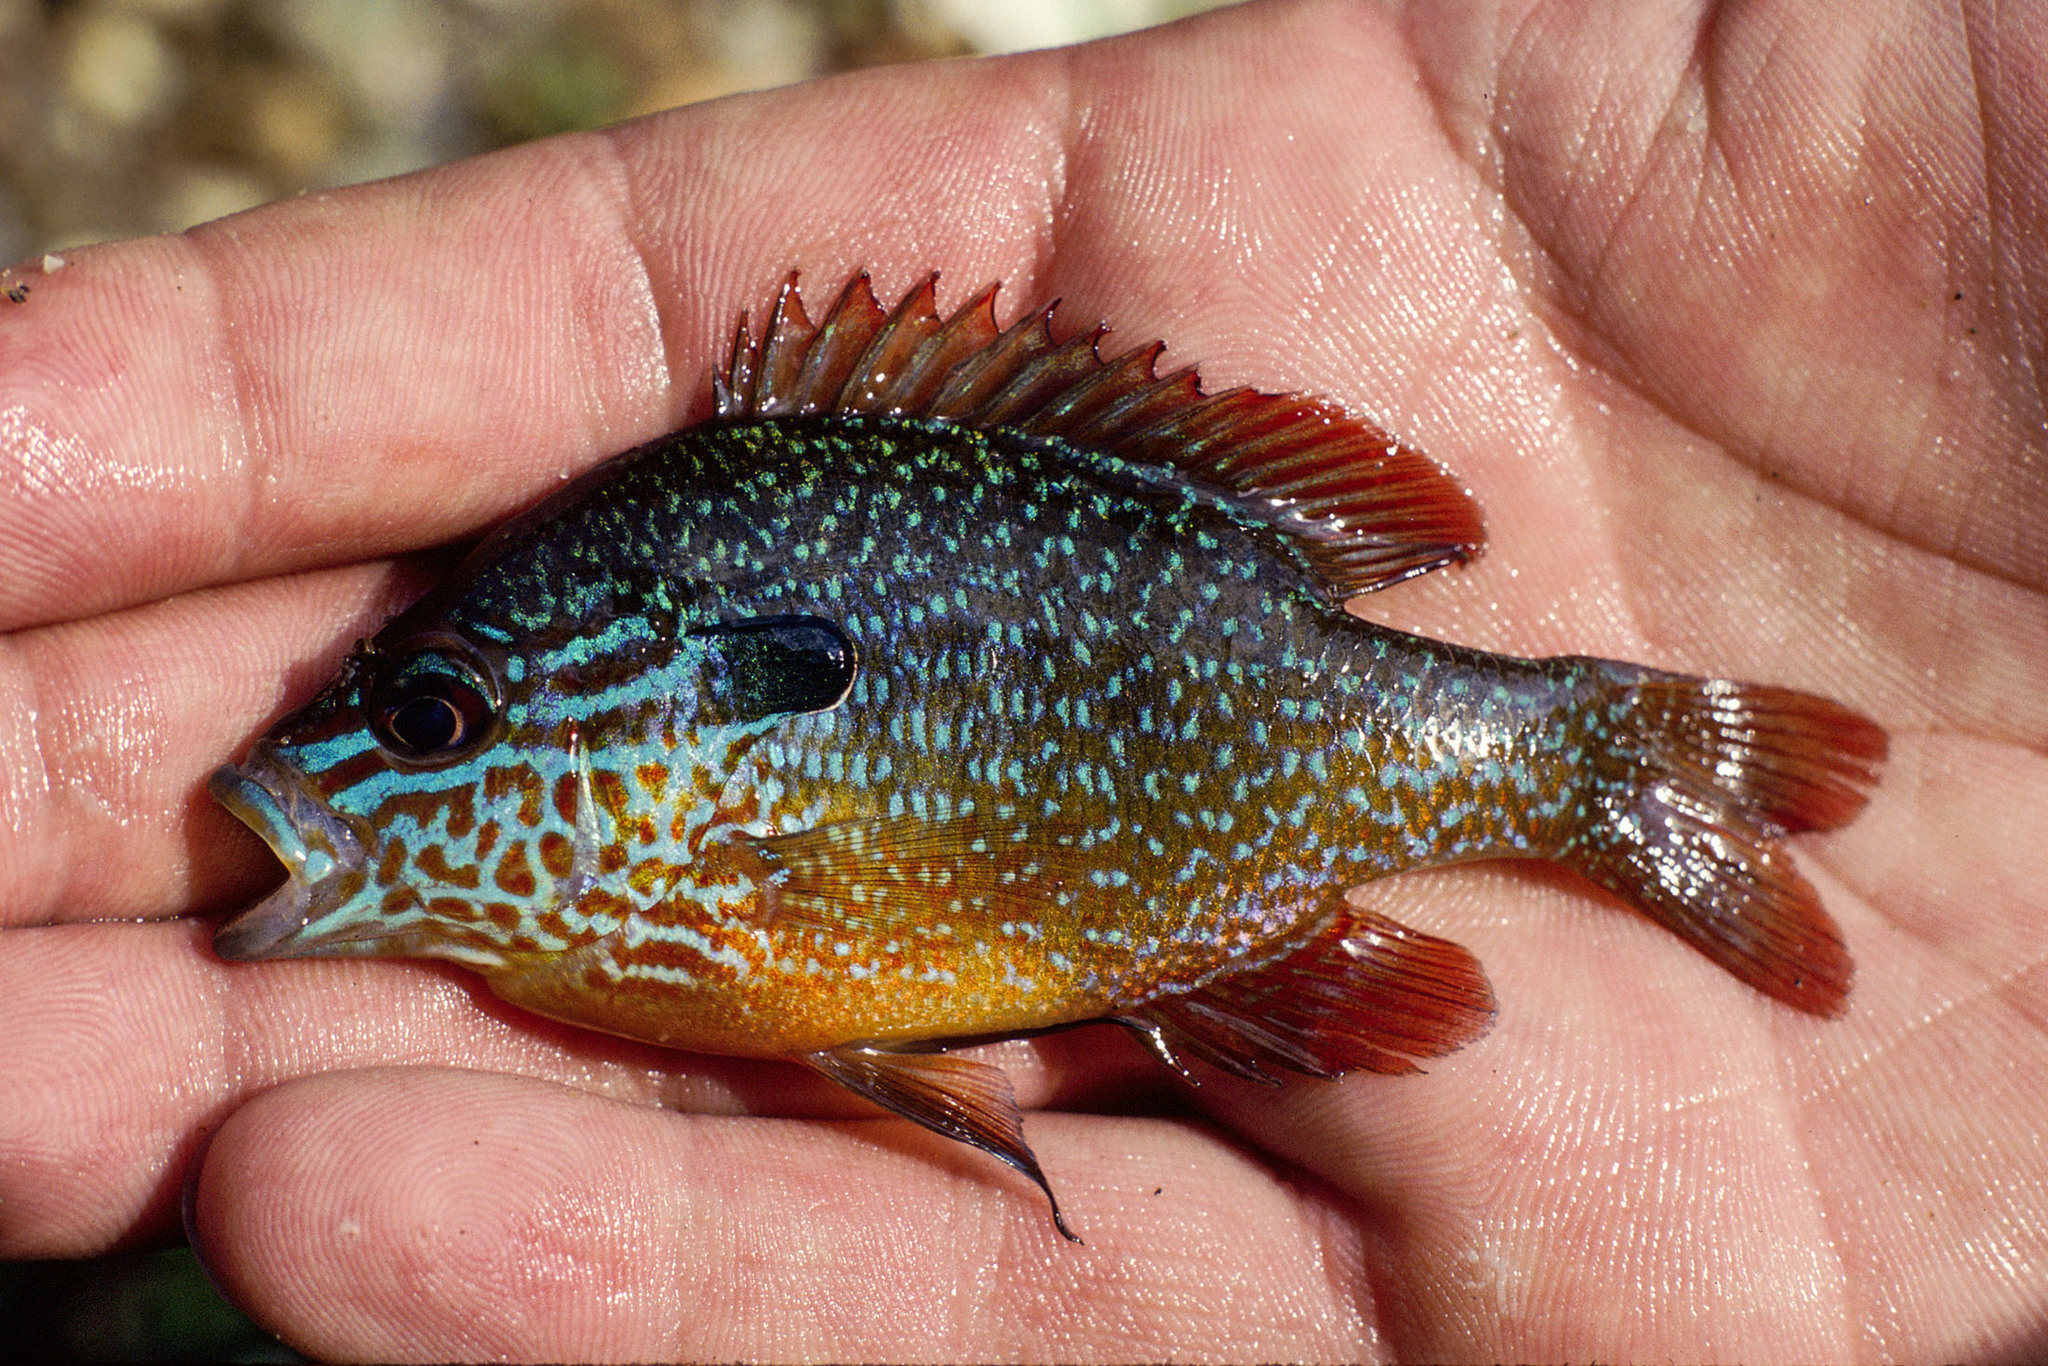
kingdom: Animalia
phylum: Chordata
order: Perciformes
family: Centrarchidae
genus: Lepomis
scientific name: Lepomis megalotis
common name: Longear sunfish
